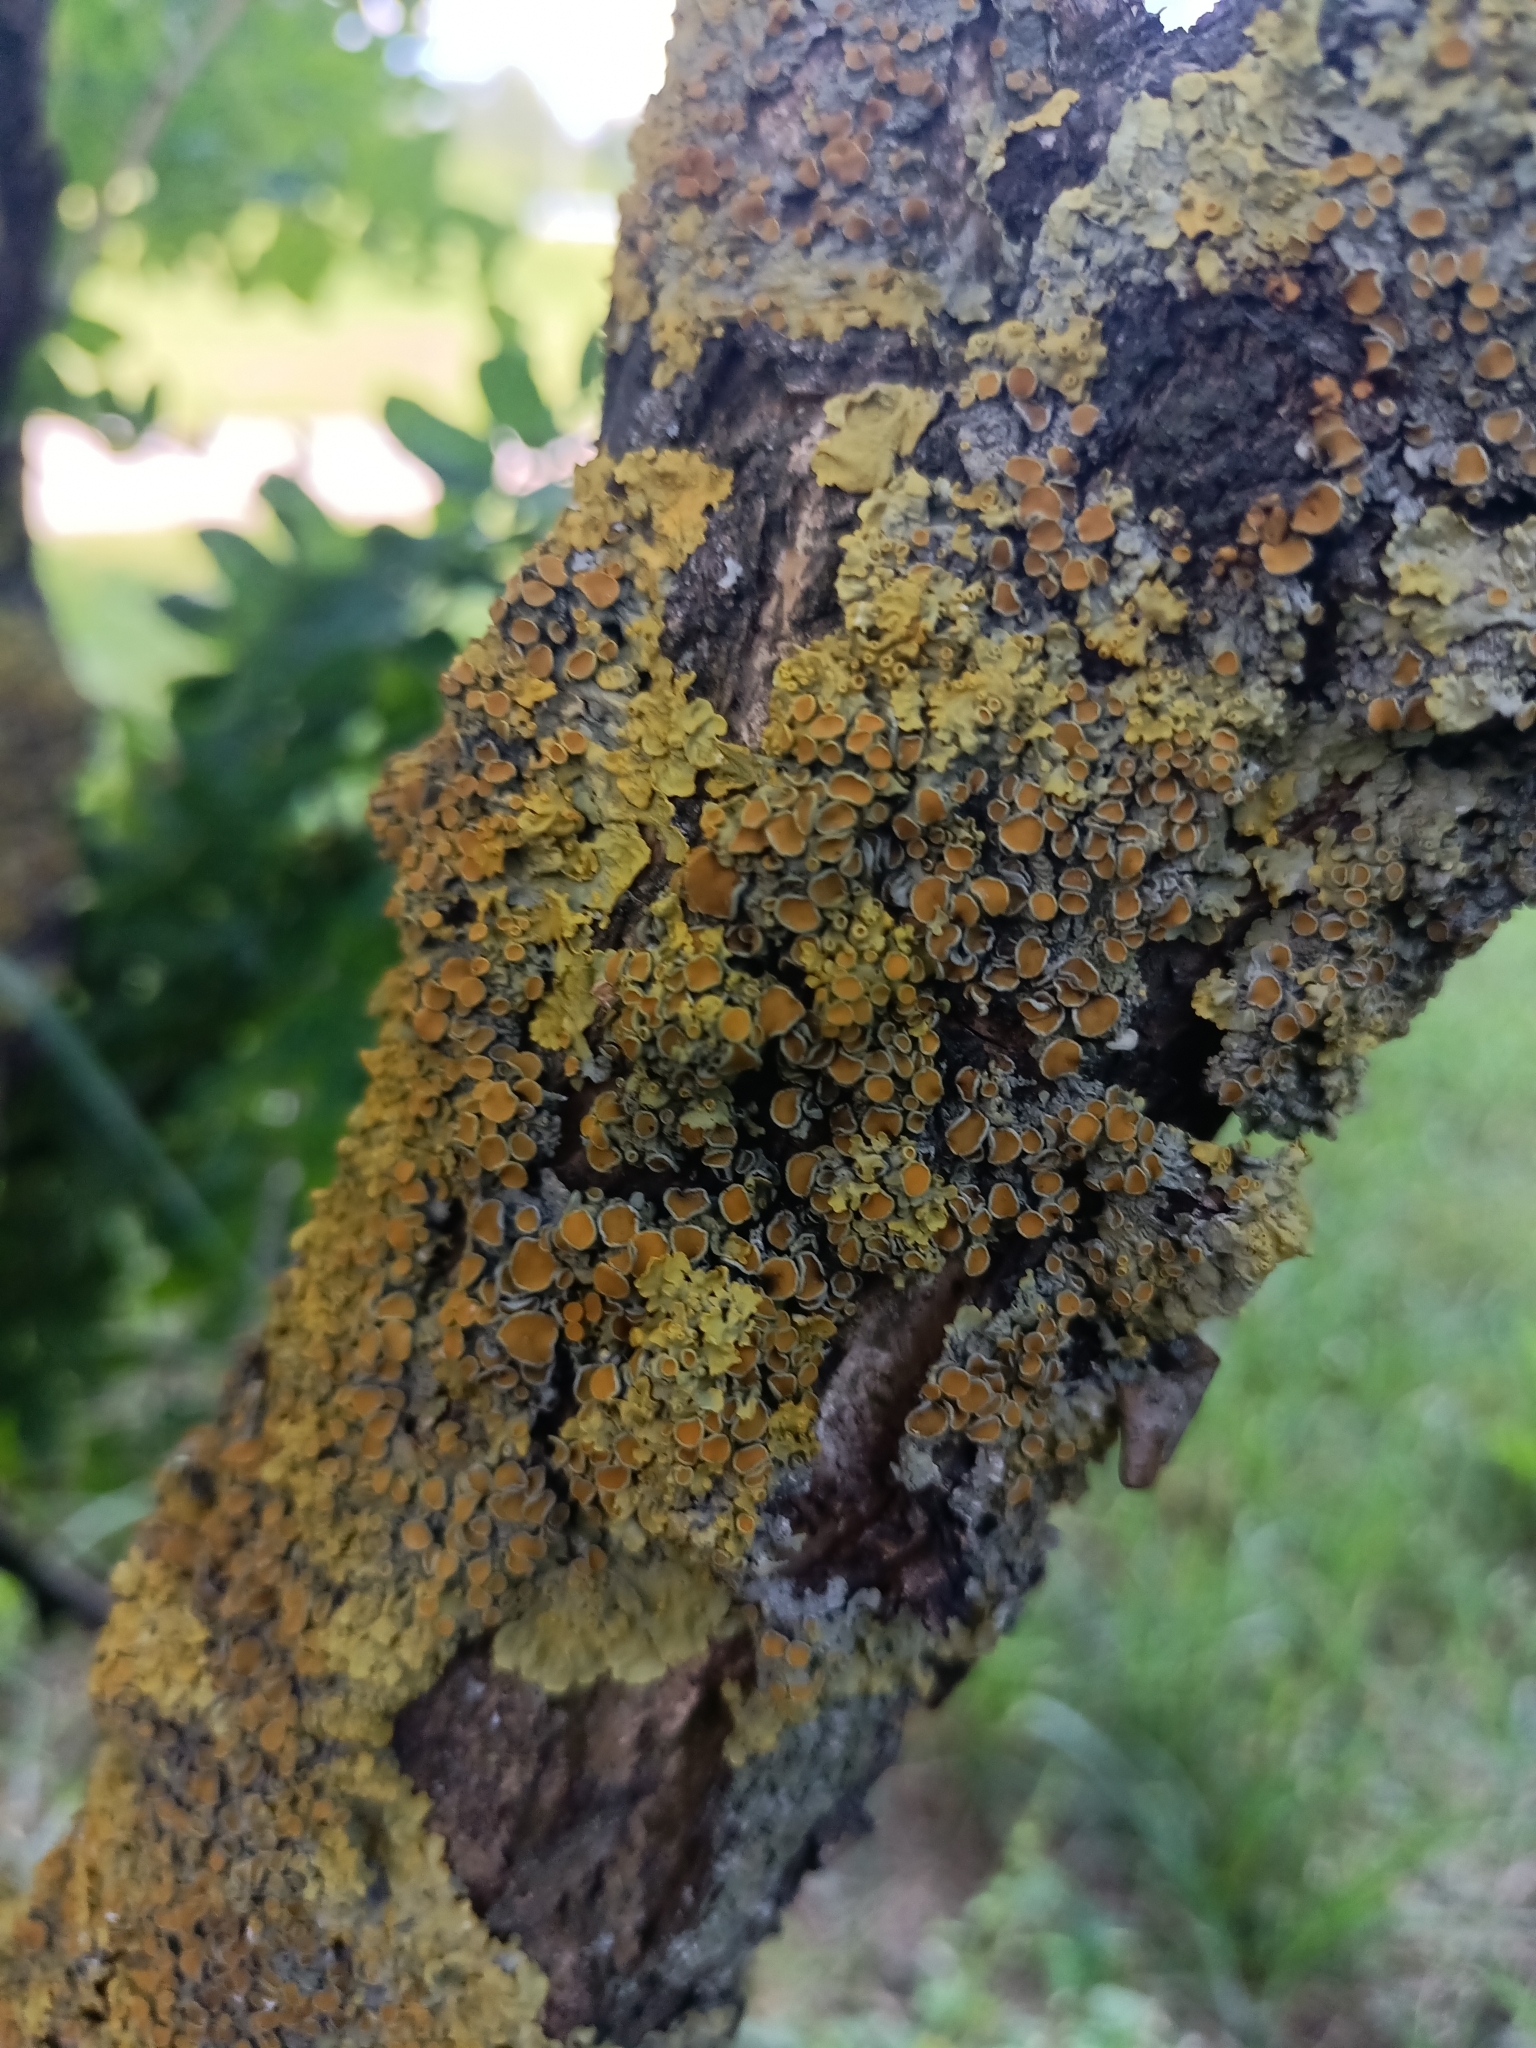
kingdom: Fungi
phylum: Ascomycota
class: Lecanoromycetes
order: Teloschistales
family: Teloschistaceae
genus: Xanthoria
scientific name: Xanthoria parietina
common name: Common orange lichen
